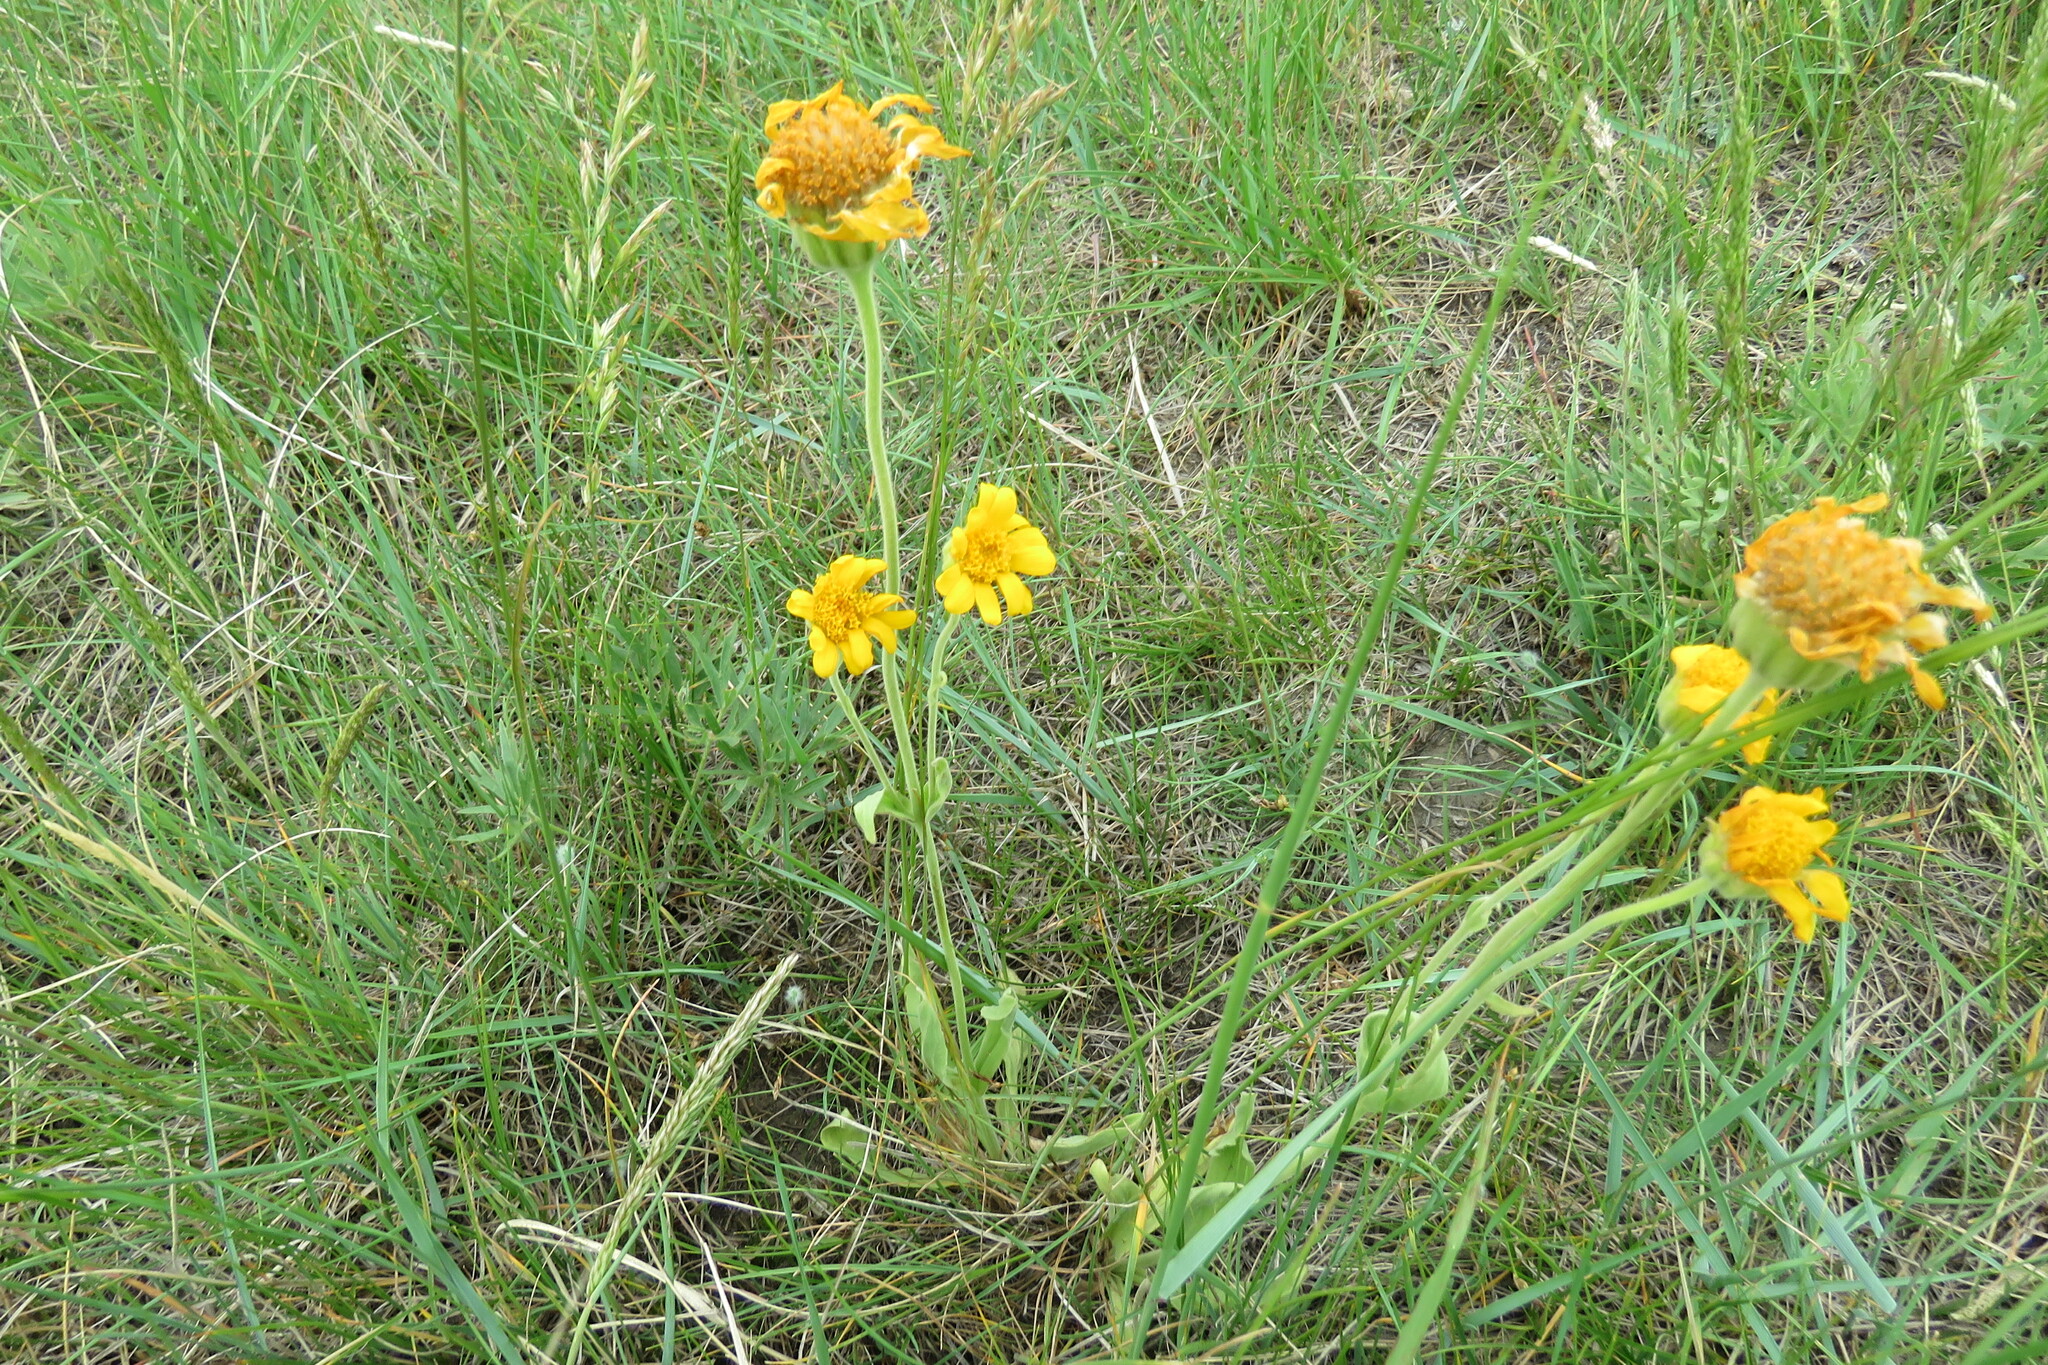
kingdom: Plantae
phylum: Tracheophyta
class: Magnoliopsida
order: Asterales
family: Asteraceae
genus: Arnica
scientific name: Arnica fulgens
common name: Foothill arnica
